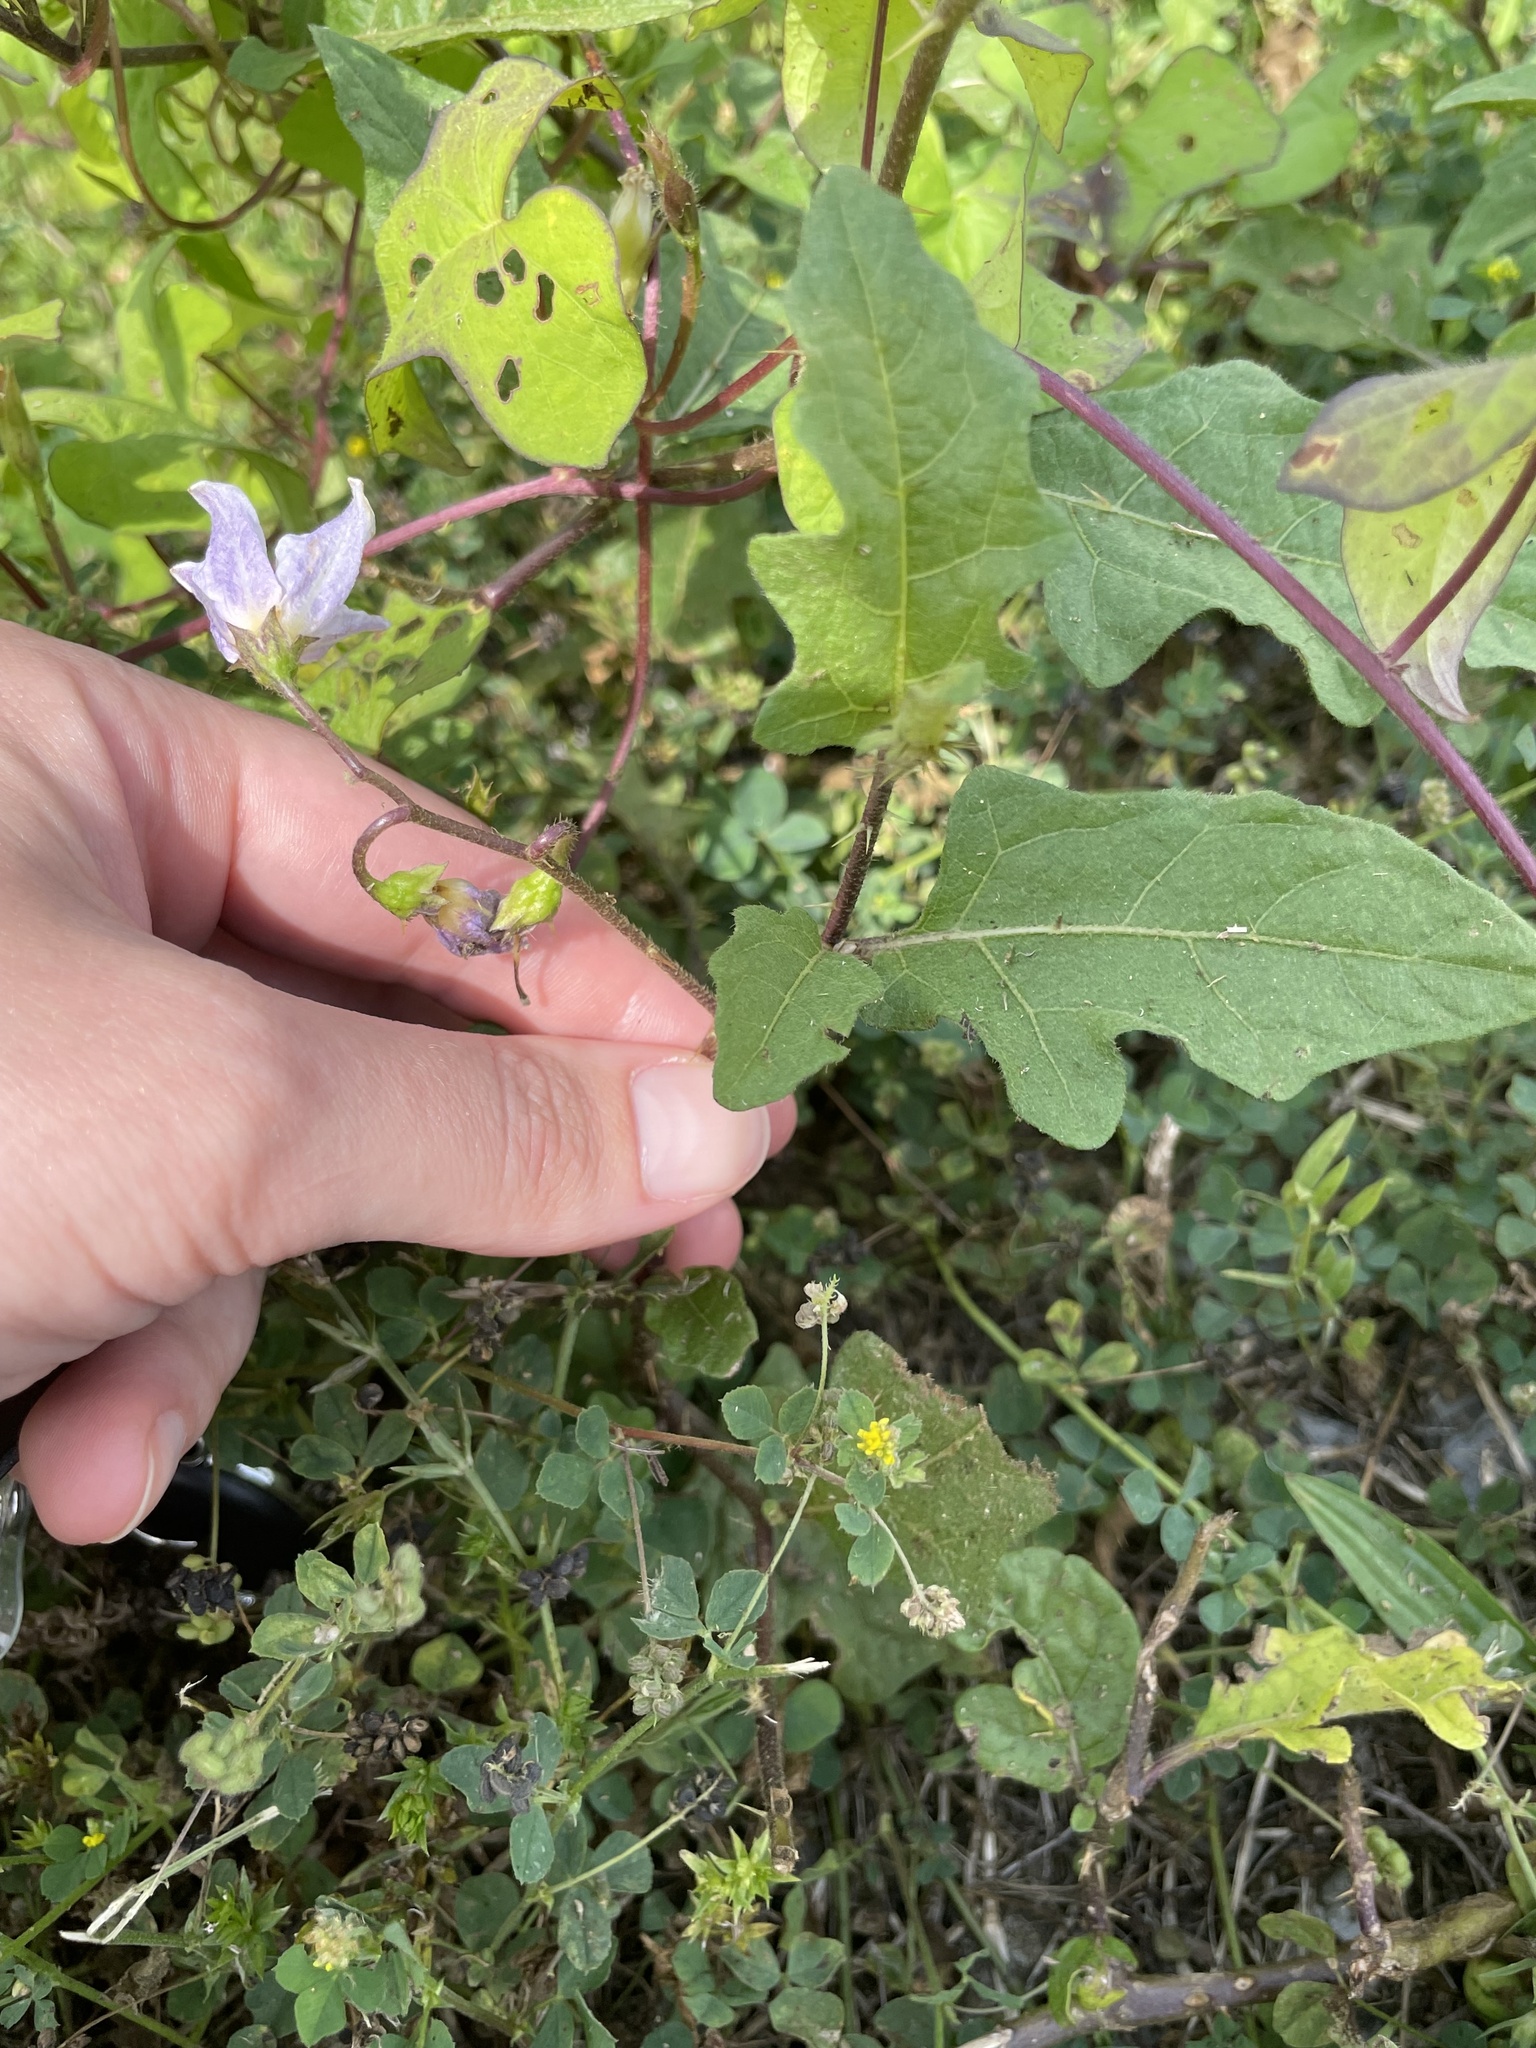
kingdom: Plantae
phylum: Tracheophyta
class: Magnoliopsida
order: Solanales
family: Solanaceae
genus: Solanum
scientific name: Solanum carolinense
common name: Horse-nettle
